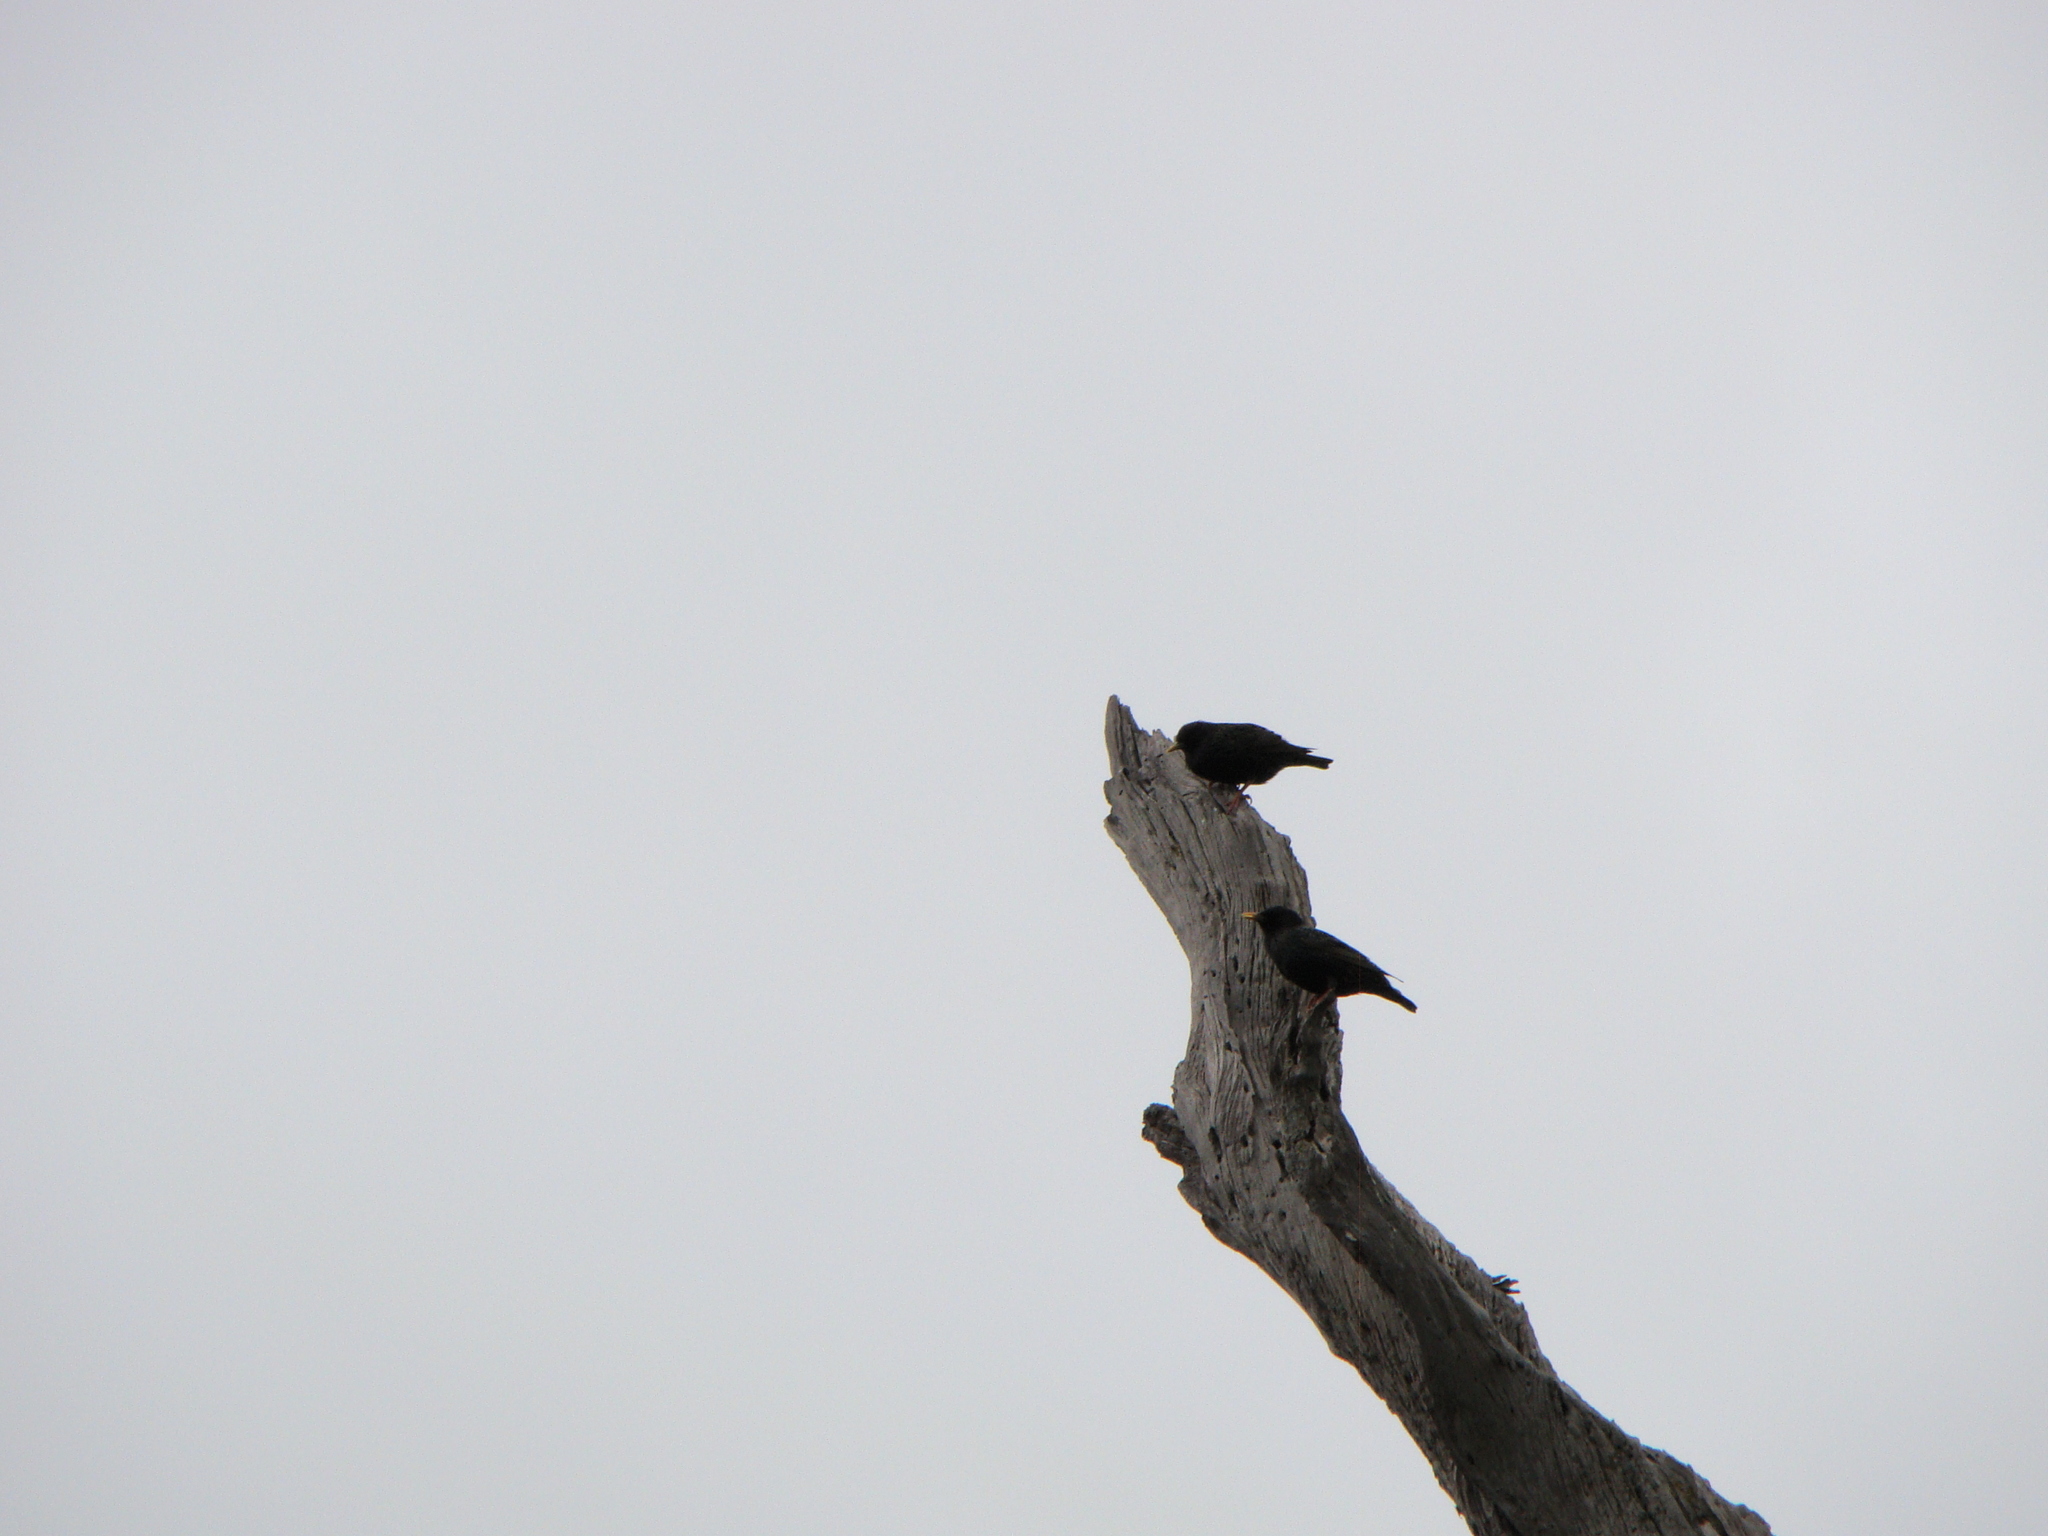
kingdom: Animalia
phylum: Chordata
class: Aves
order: Passeriformes
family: Sturnidae
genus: Sturnus
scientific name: Sturnus vulgaris
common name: Common starling
